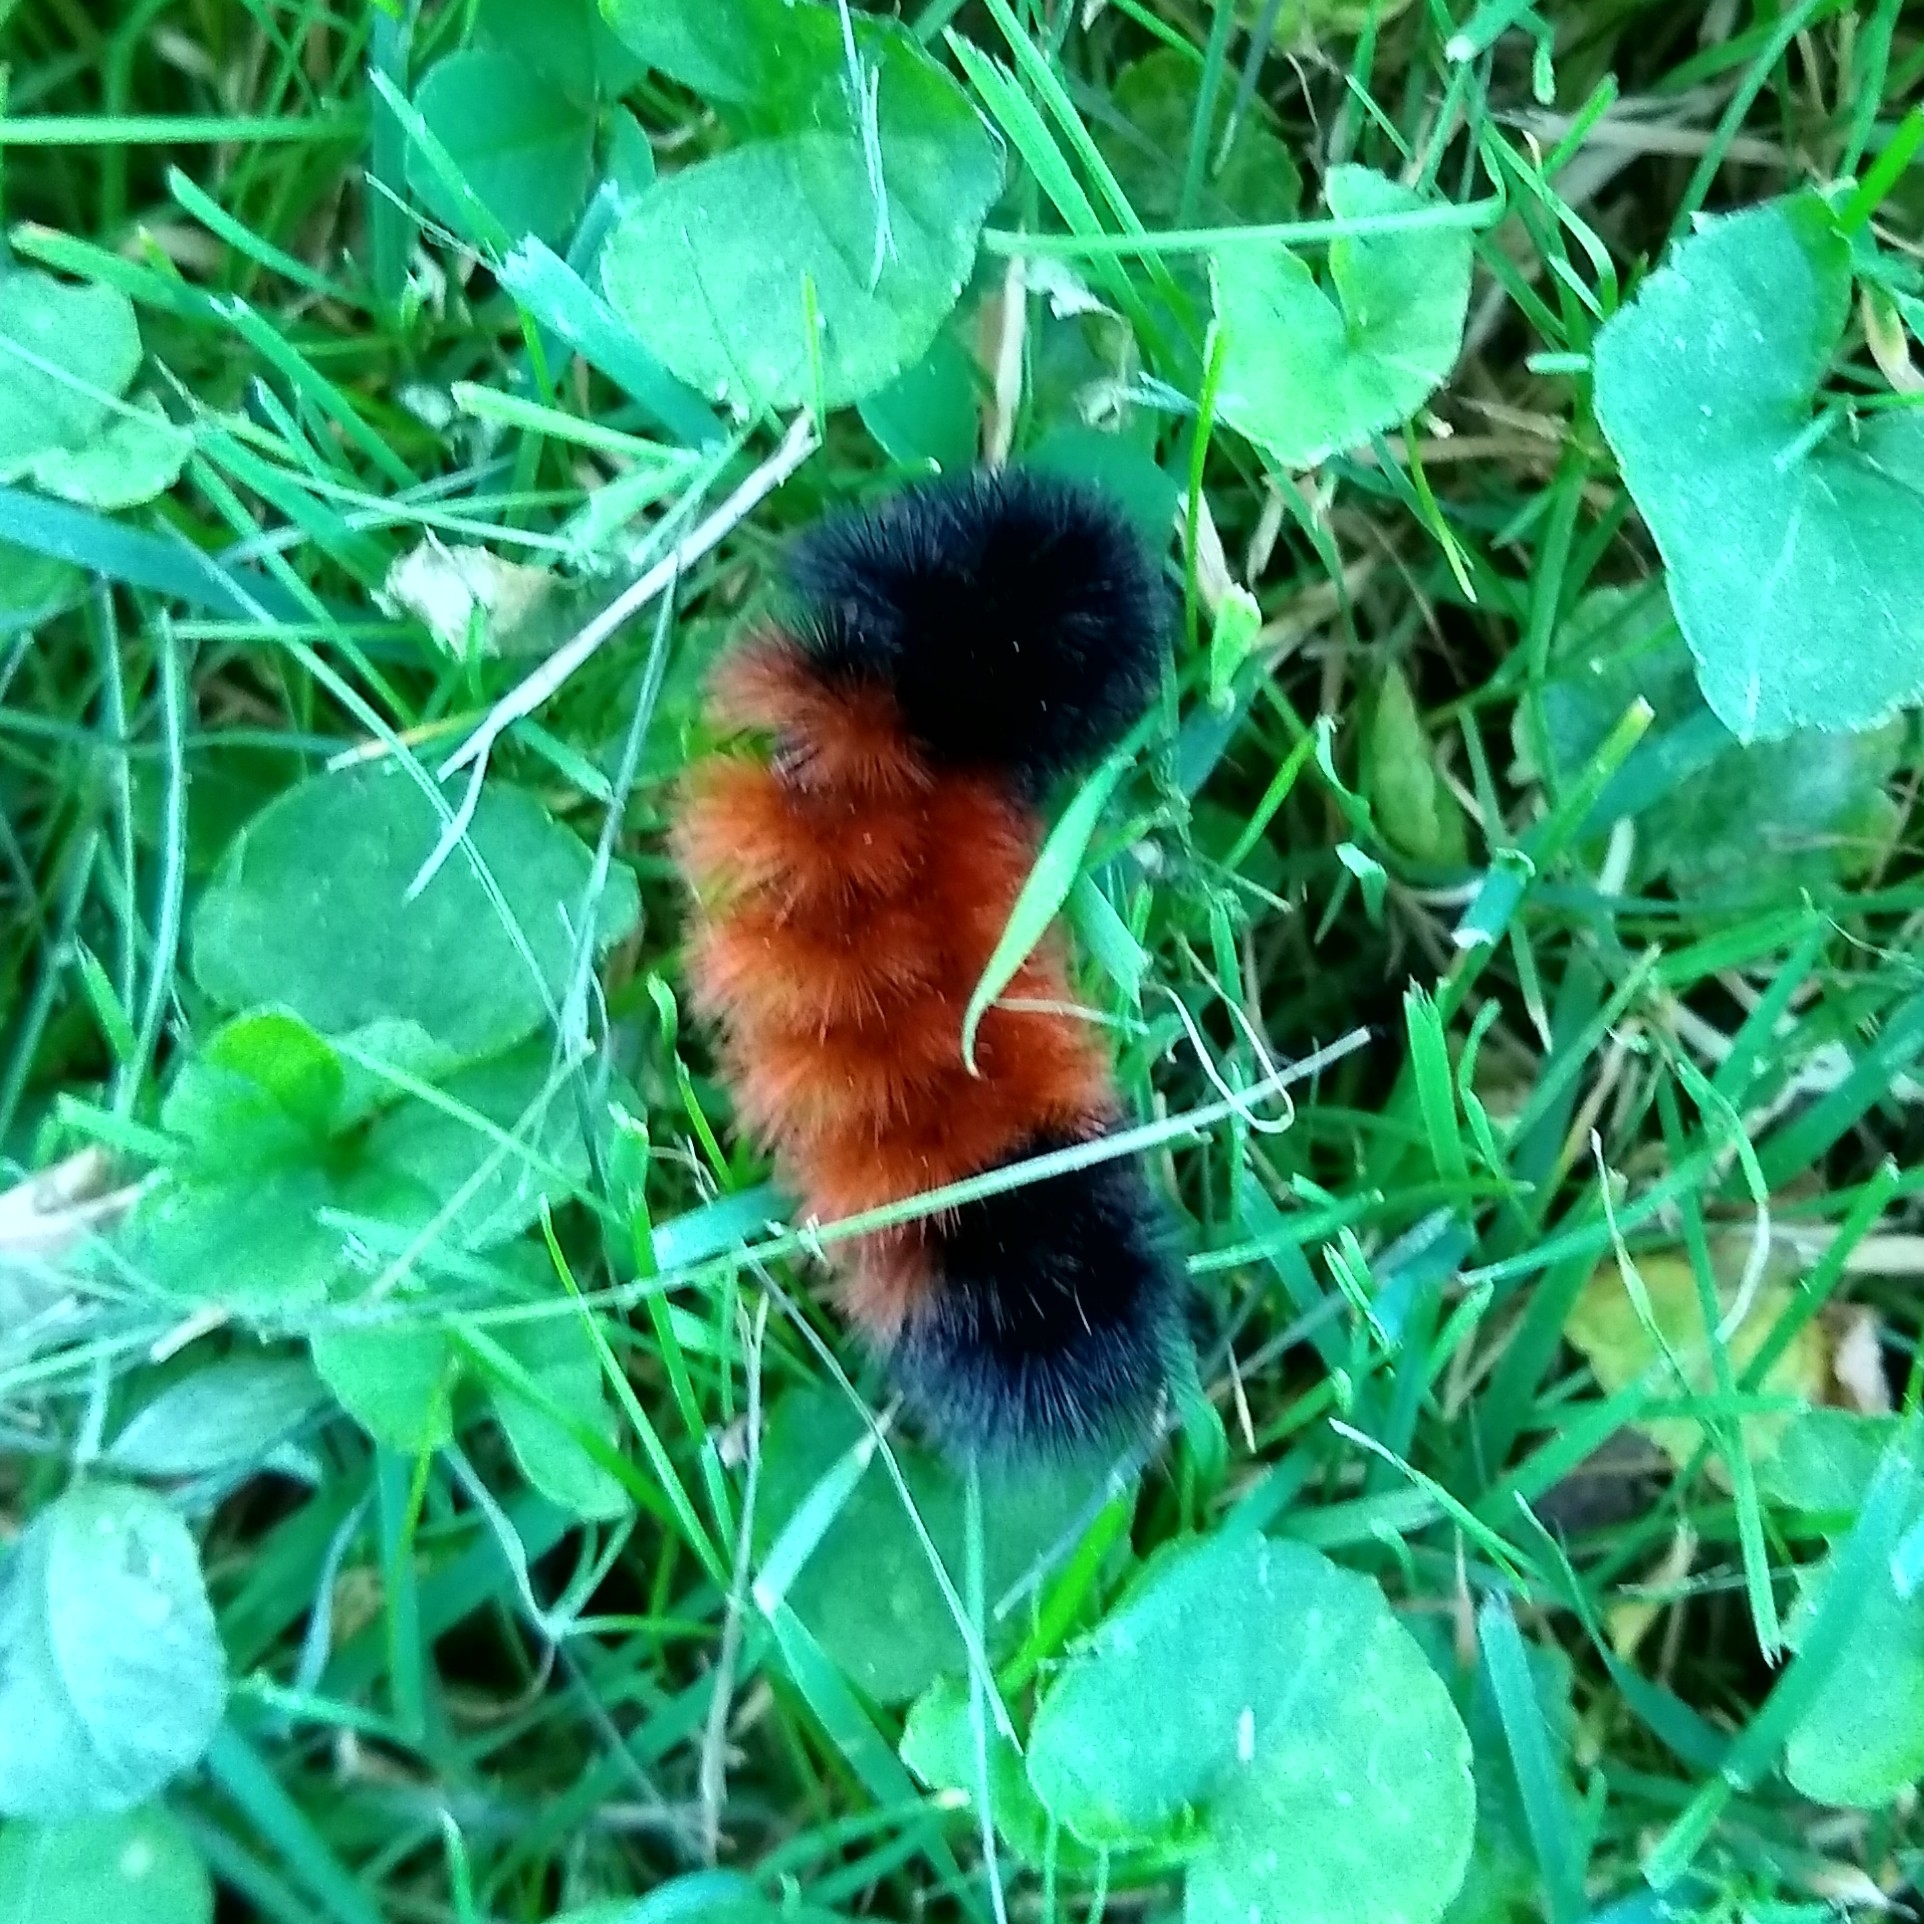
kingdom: Animalia
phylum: Arthropoda
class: Insecta
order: Lepidoptera
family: Erebidae
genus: Pyrrharctia
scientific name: Pyrrharctia isabella
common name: Isabella tiger moth
